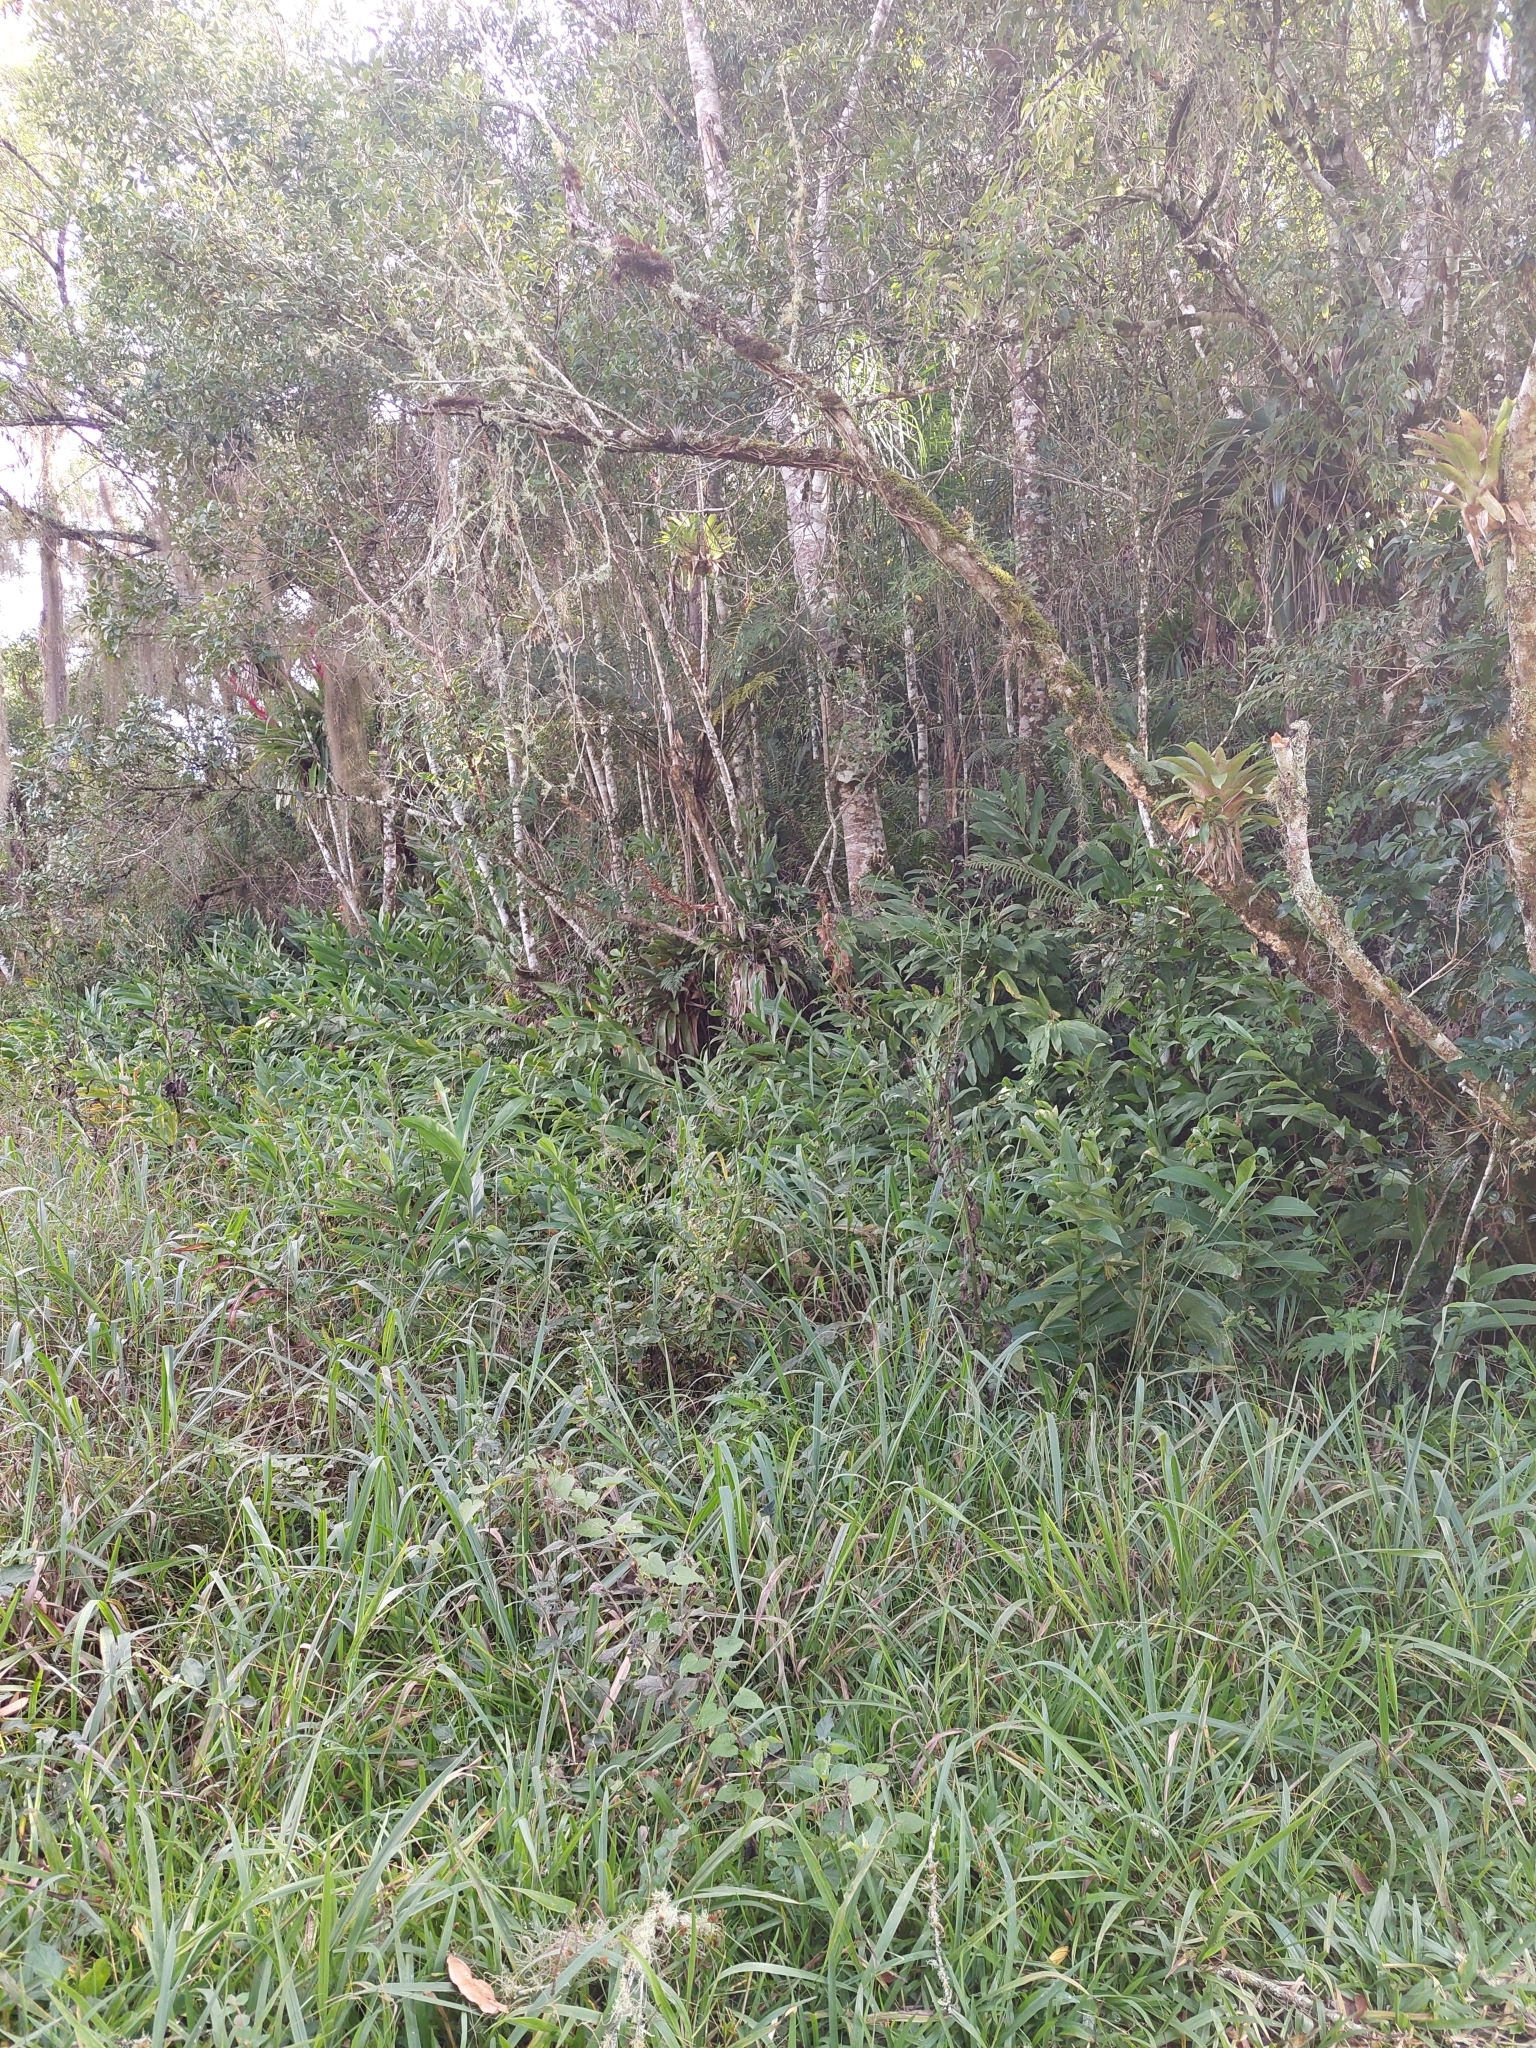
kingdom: Plantae
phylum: Tracheophyta
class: Liliopsida
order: Zingiberales
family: Zingiberaceae
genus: Hedychium
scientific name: Hedychium coronarium
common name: White garland-lily
